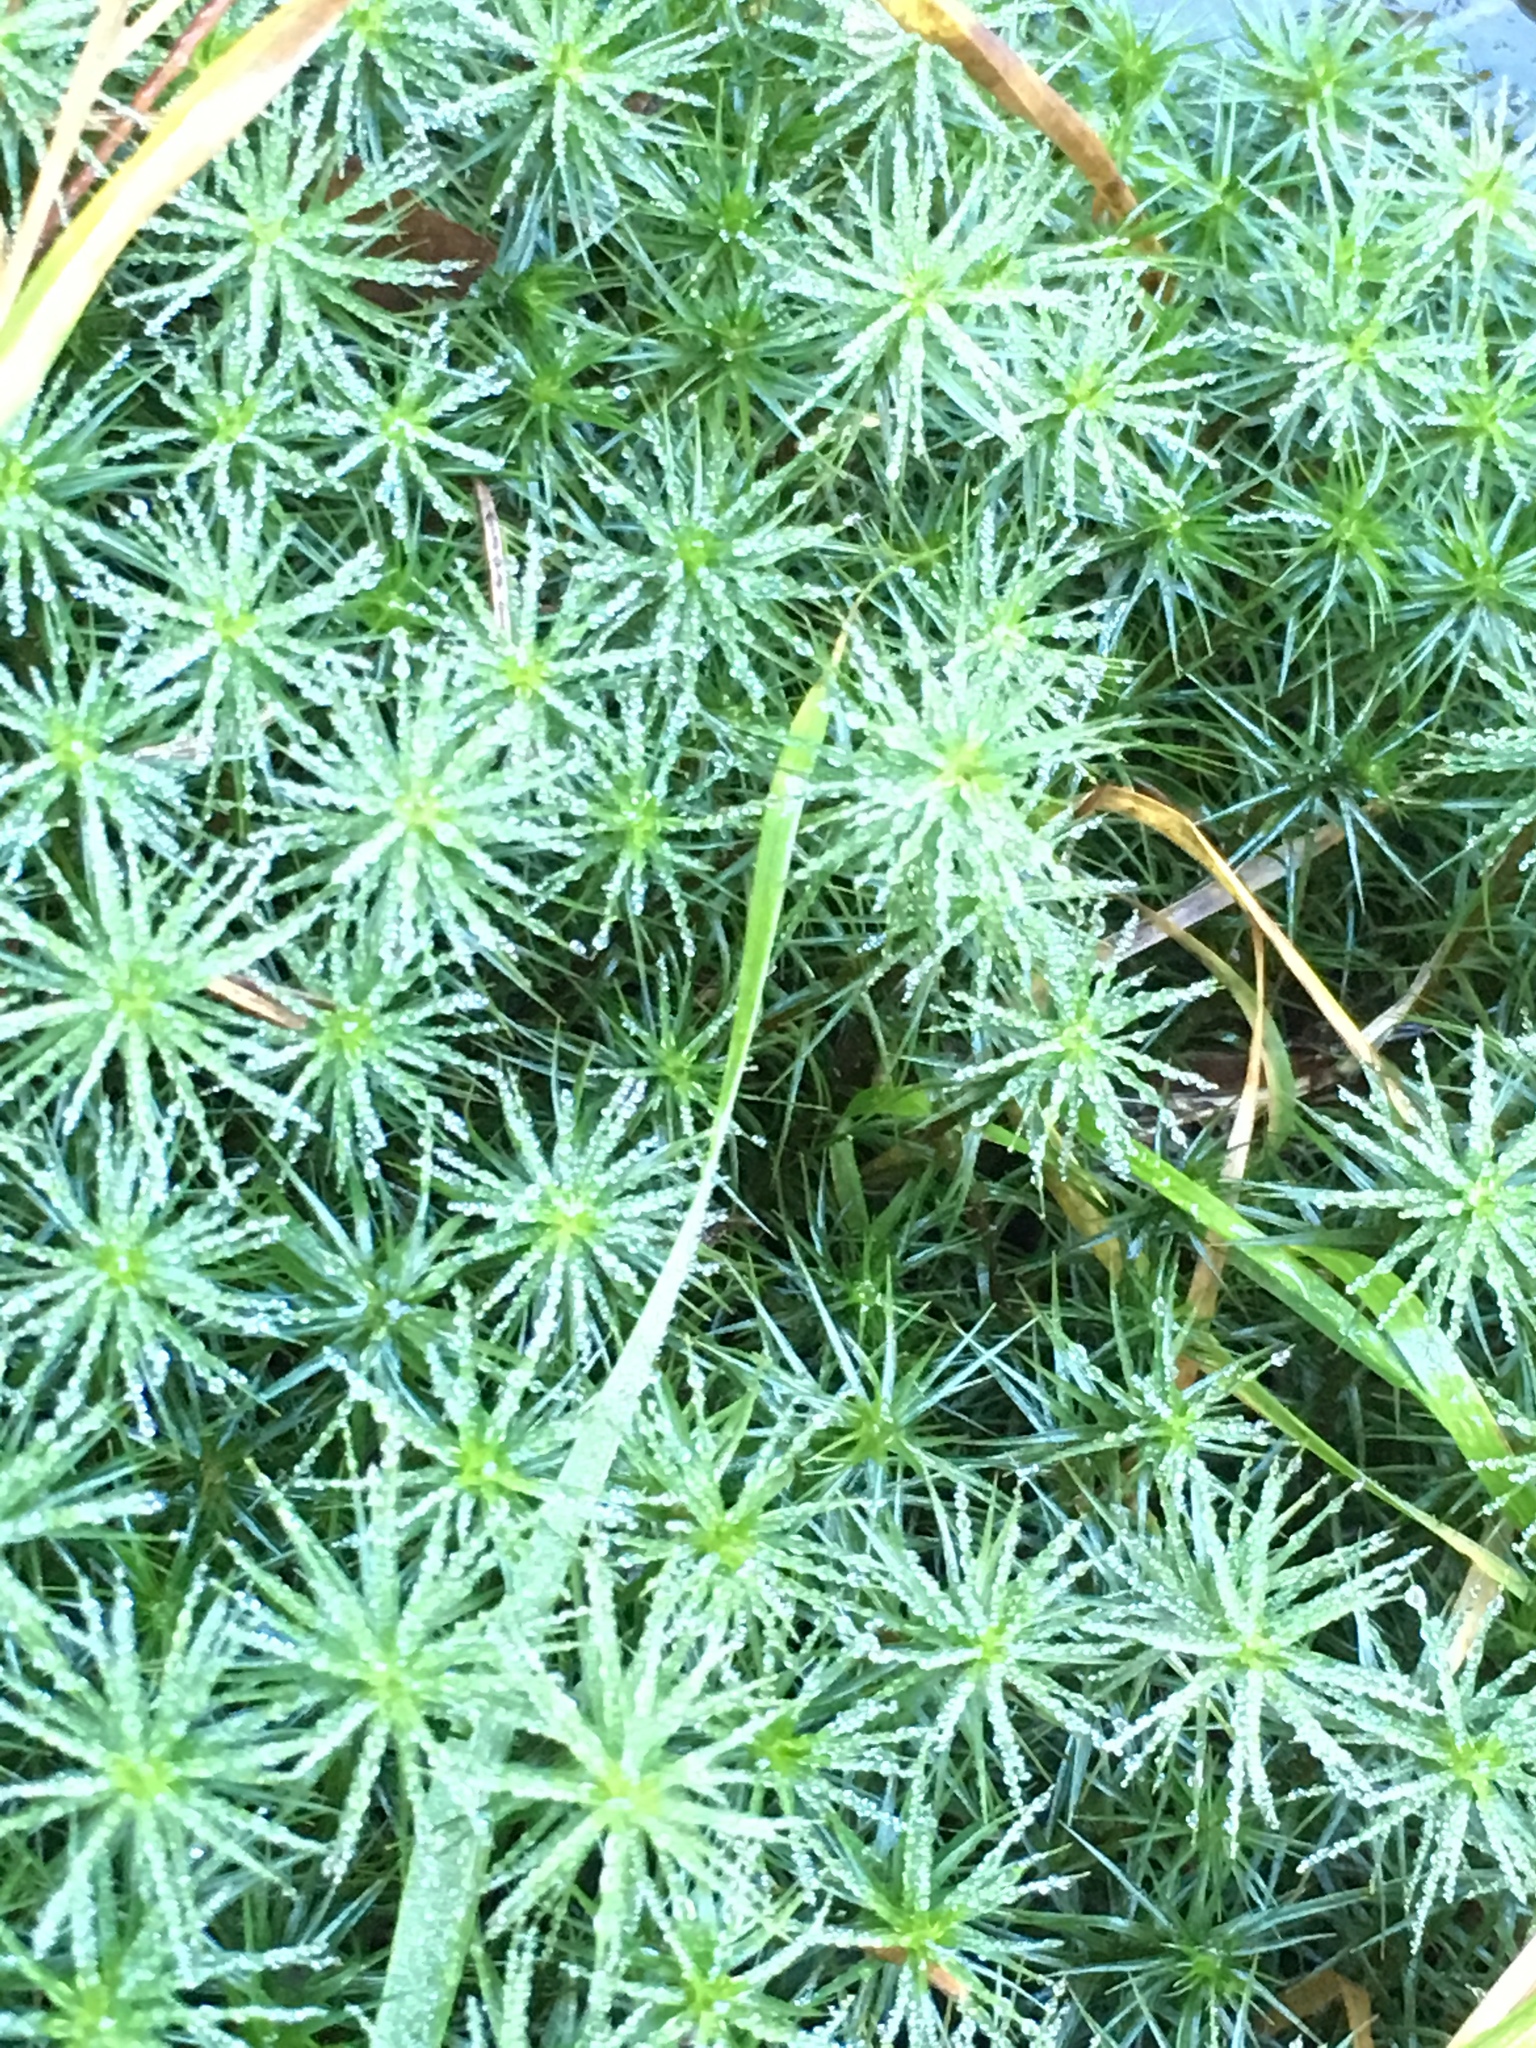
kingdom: Plantae
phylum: Bryophyta
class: Polytrichopsida
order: Polytrichales
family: Polytrichaceae
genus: Polytrichum
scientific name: Polytrichum commune
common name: Common haircap
